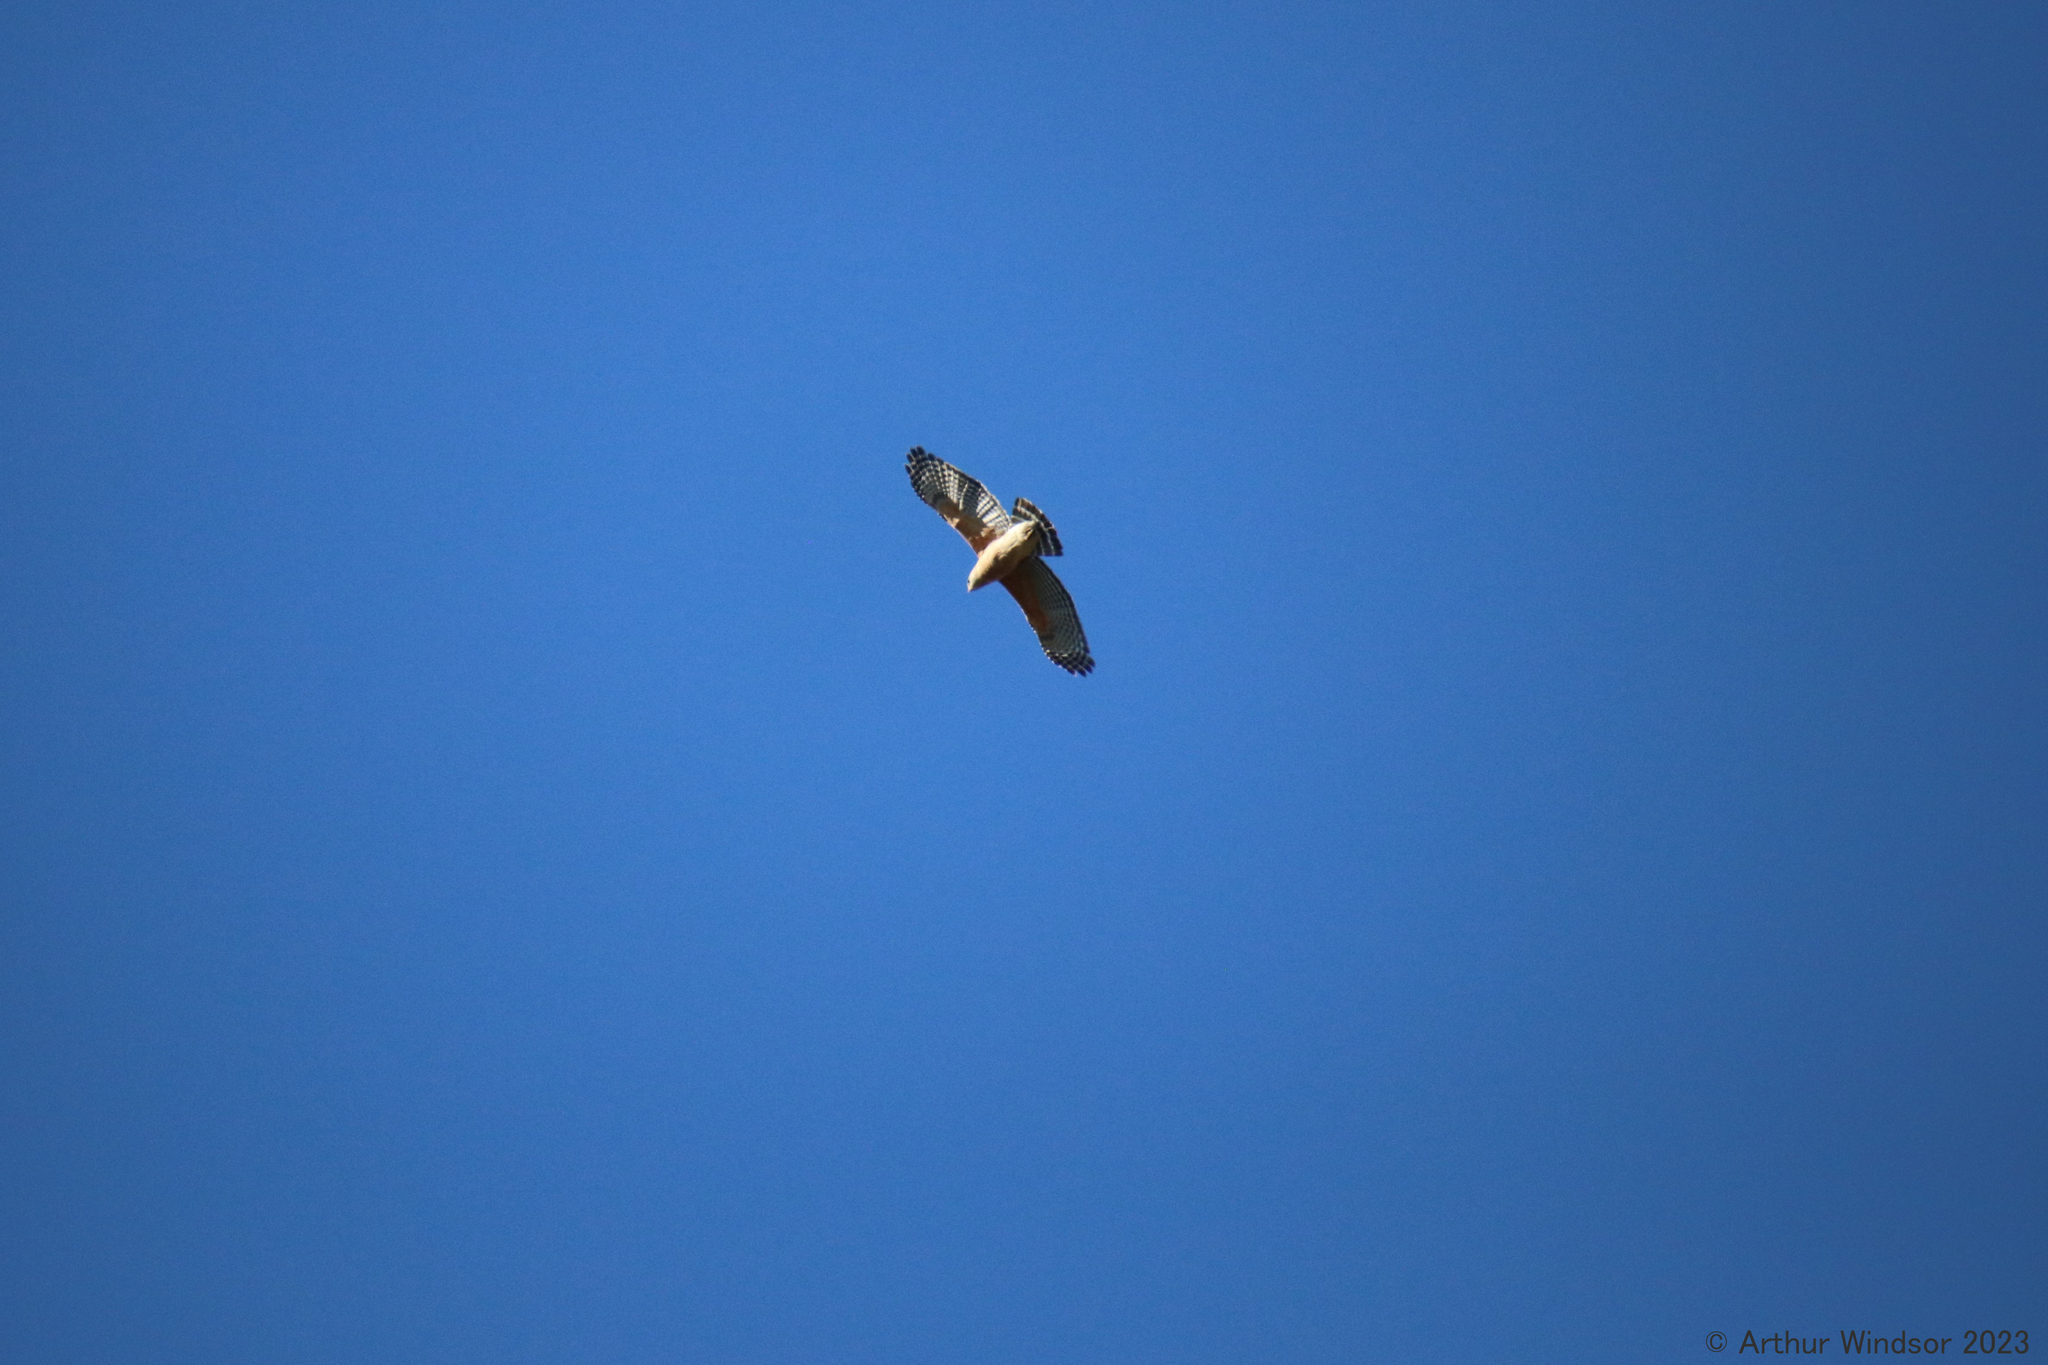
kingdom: Animalia
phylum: Chordata
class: Aves
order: Accipitriformes
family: Accipitridae
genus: Buteo
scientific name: Buteo lineatus
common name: Red-shouldered hawk
